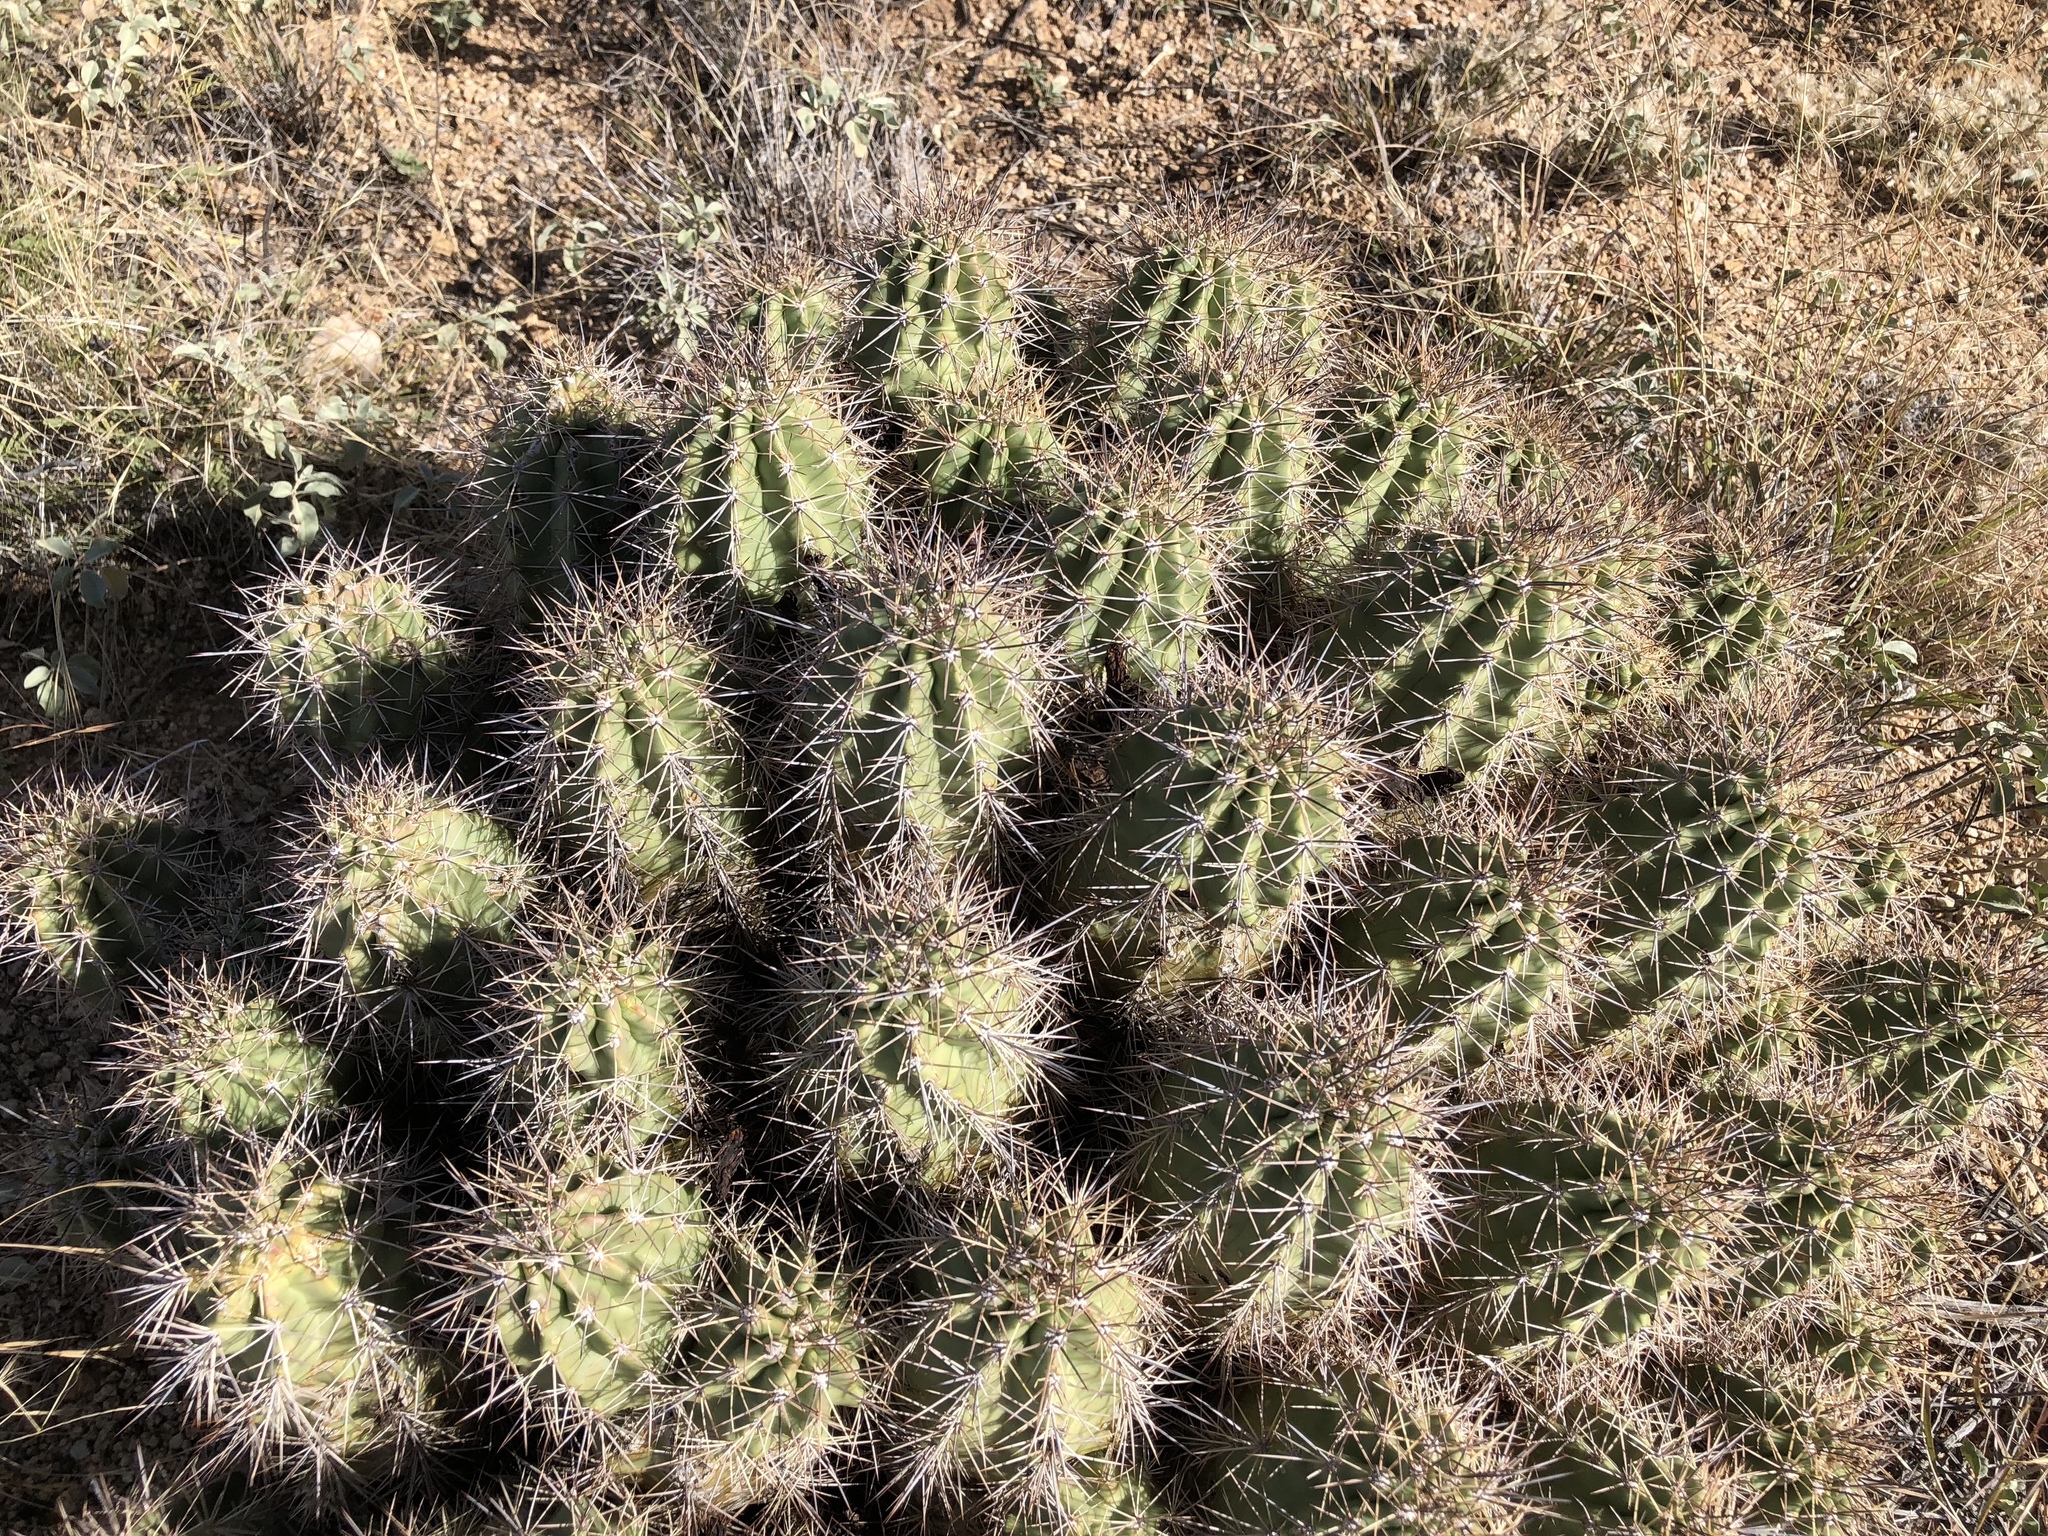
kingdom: Plantae
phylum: Tracheophyta
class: Magnoliopsida
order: Caryophyllales
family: Cactaceae
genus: Echinocereus
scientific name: Echinocereus coccineus
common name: Scarlet hedgehog cactus
